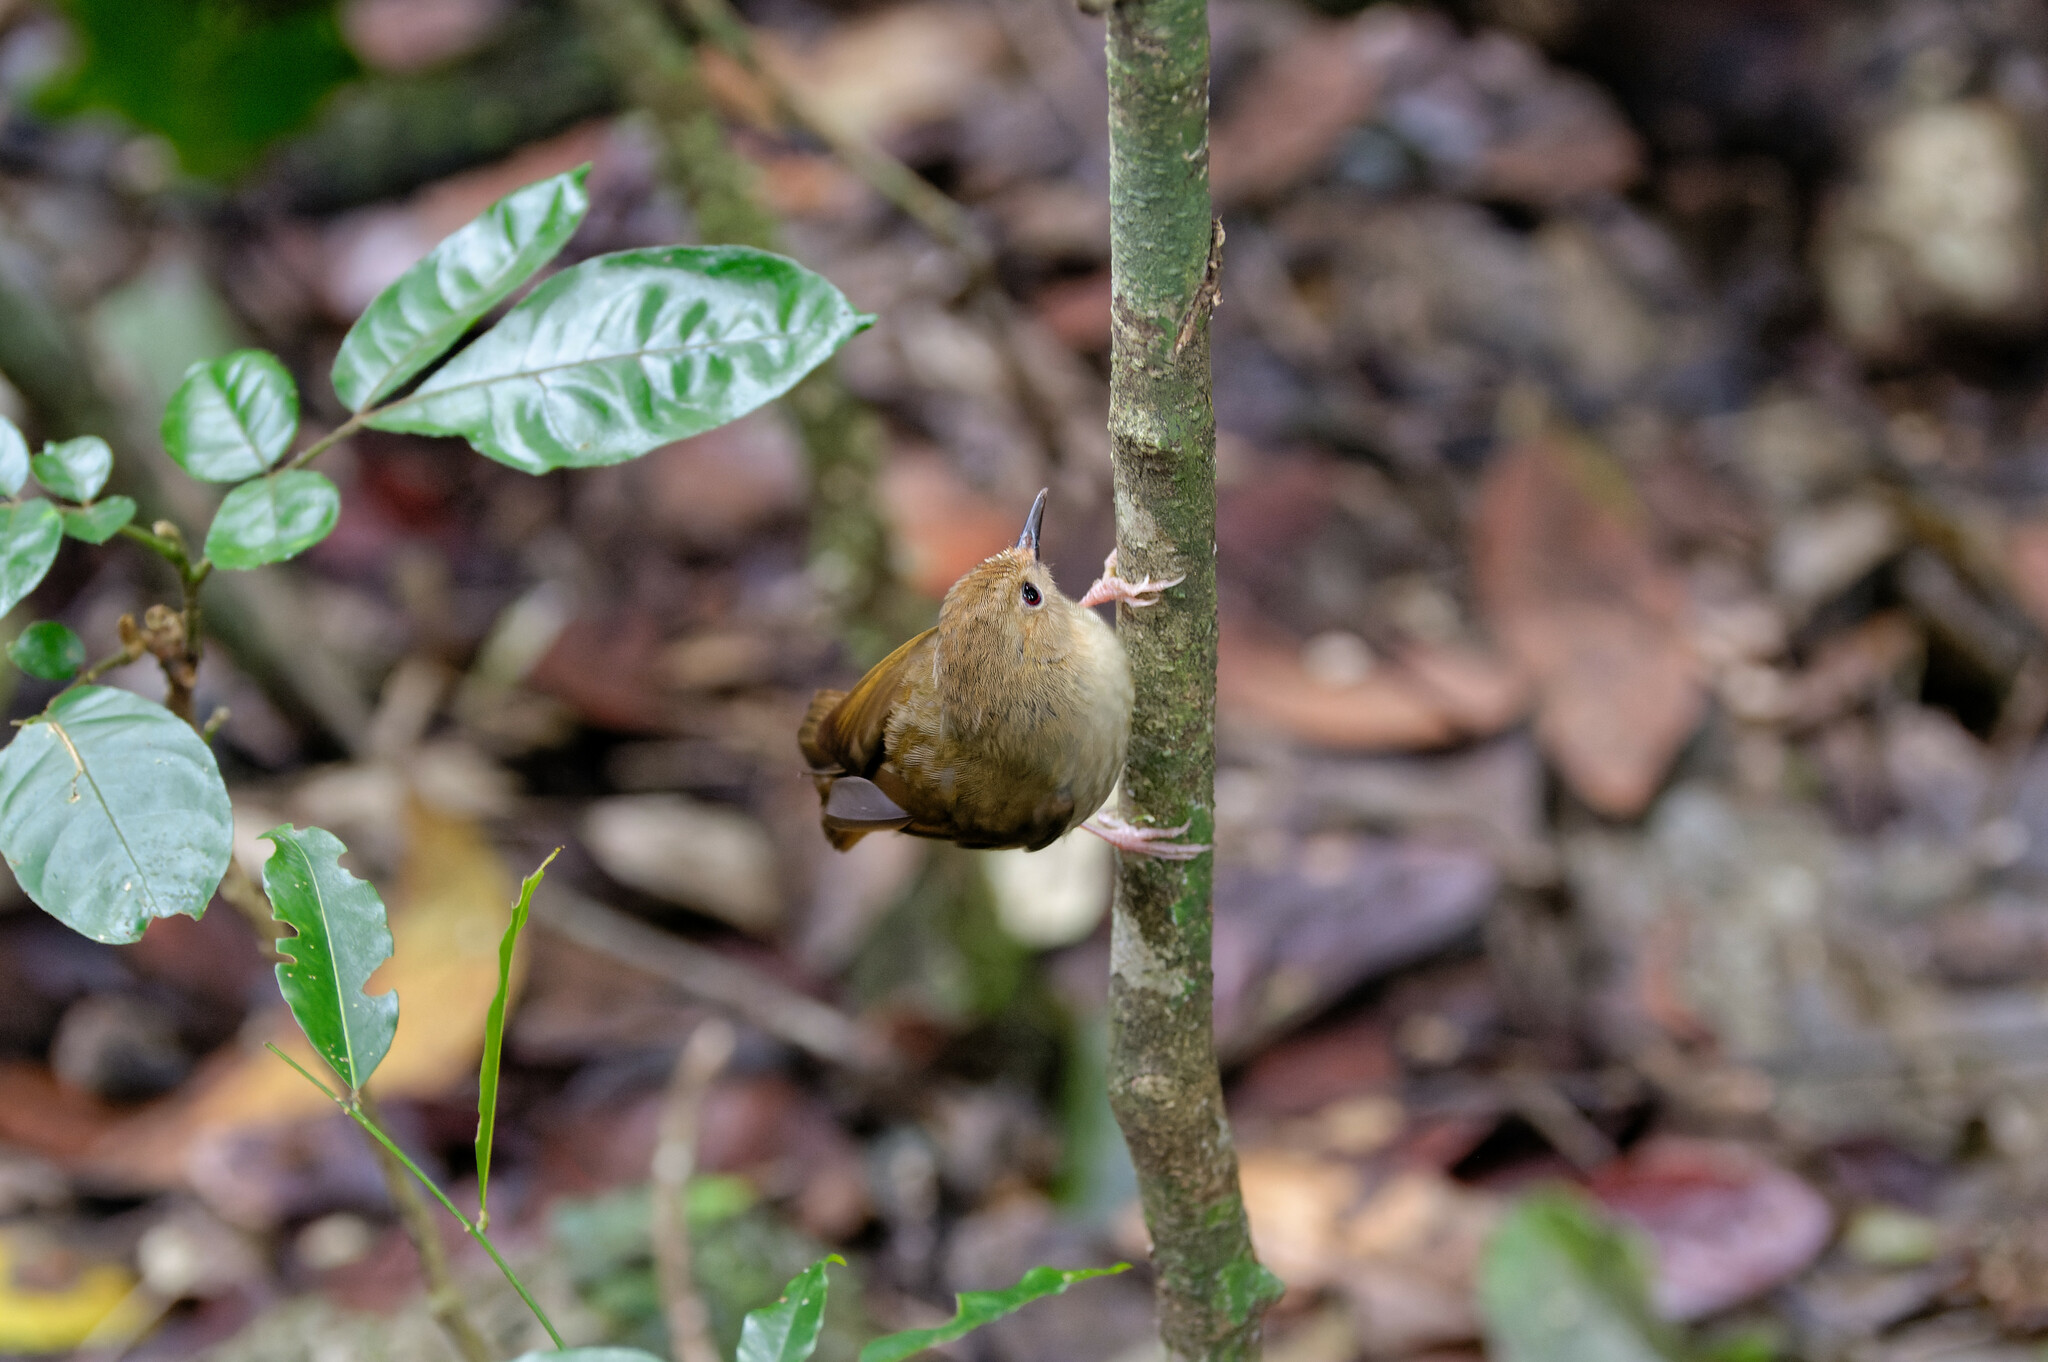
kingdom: Animalia
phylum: Chordata
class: Aves
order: Passeriformes
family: Acanthizidae
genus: Sericornis
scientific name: Sericornis magnirostra
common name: Large-billed scrubwren
